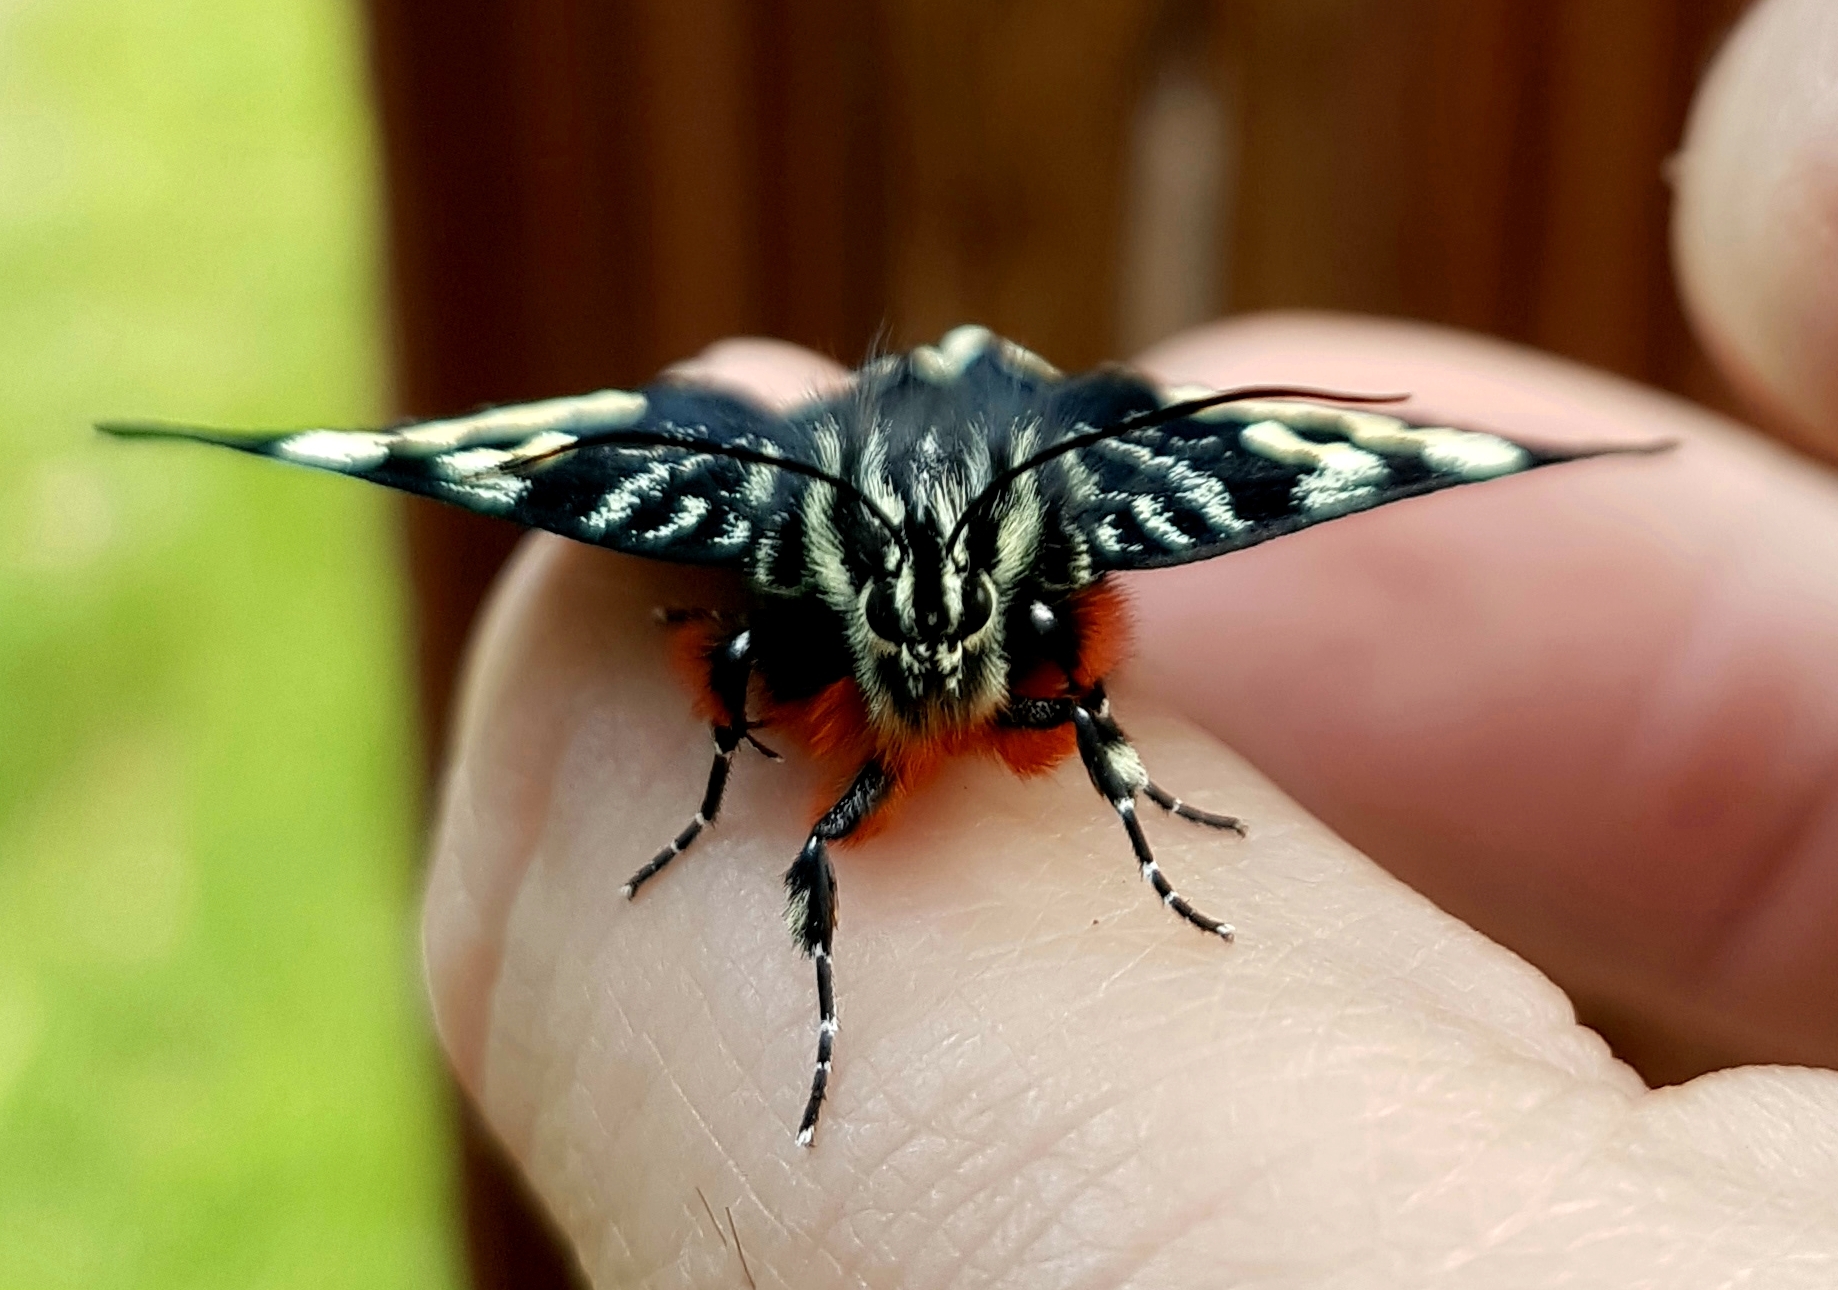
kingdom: Animalia
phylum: Arthropoda
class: Insecta
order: Lepidoptera
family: Noctuidae
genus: Phalaenoides
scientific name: Phalaenoides glycinae
